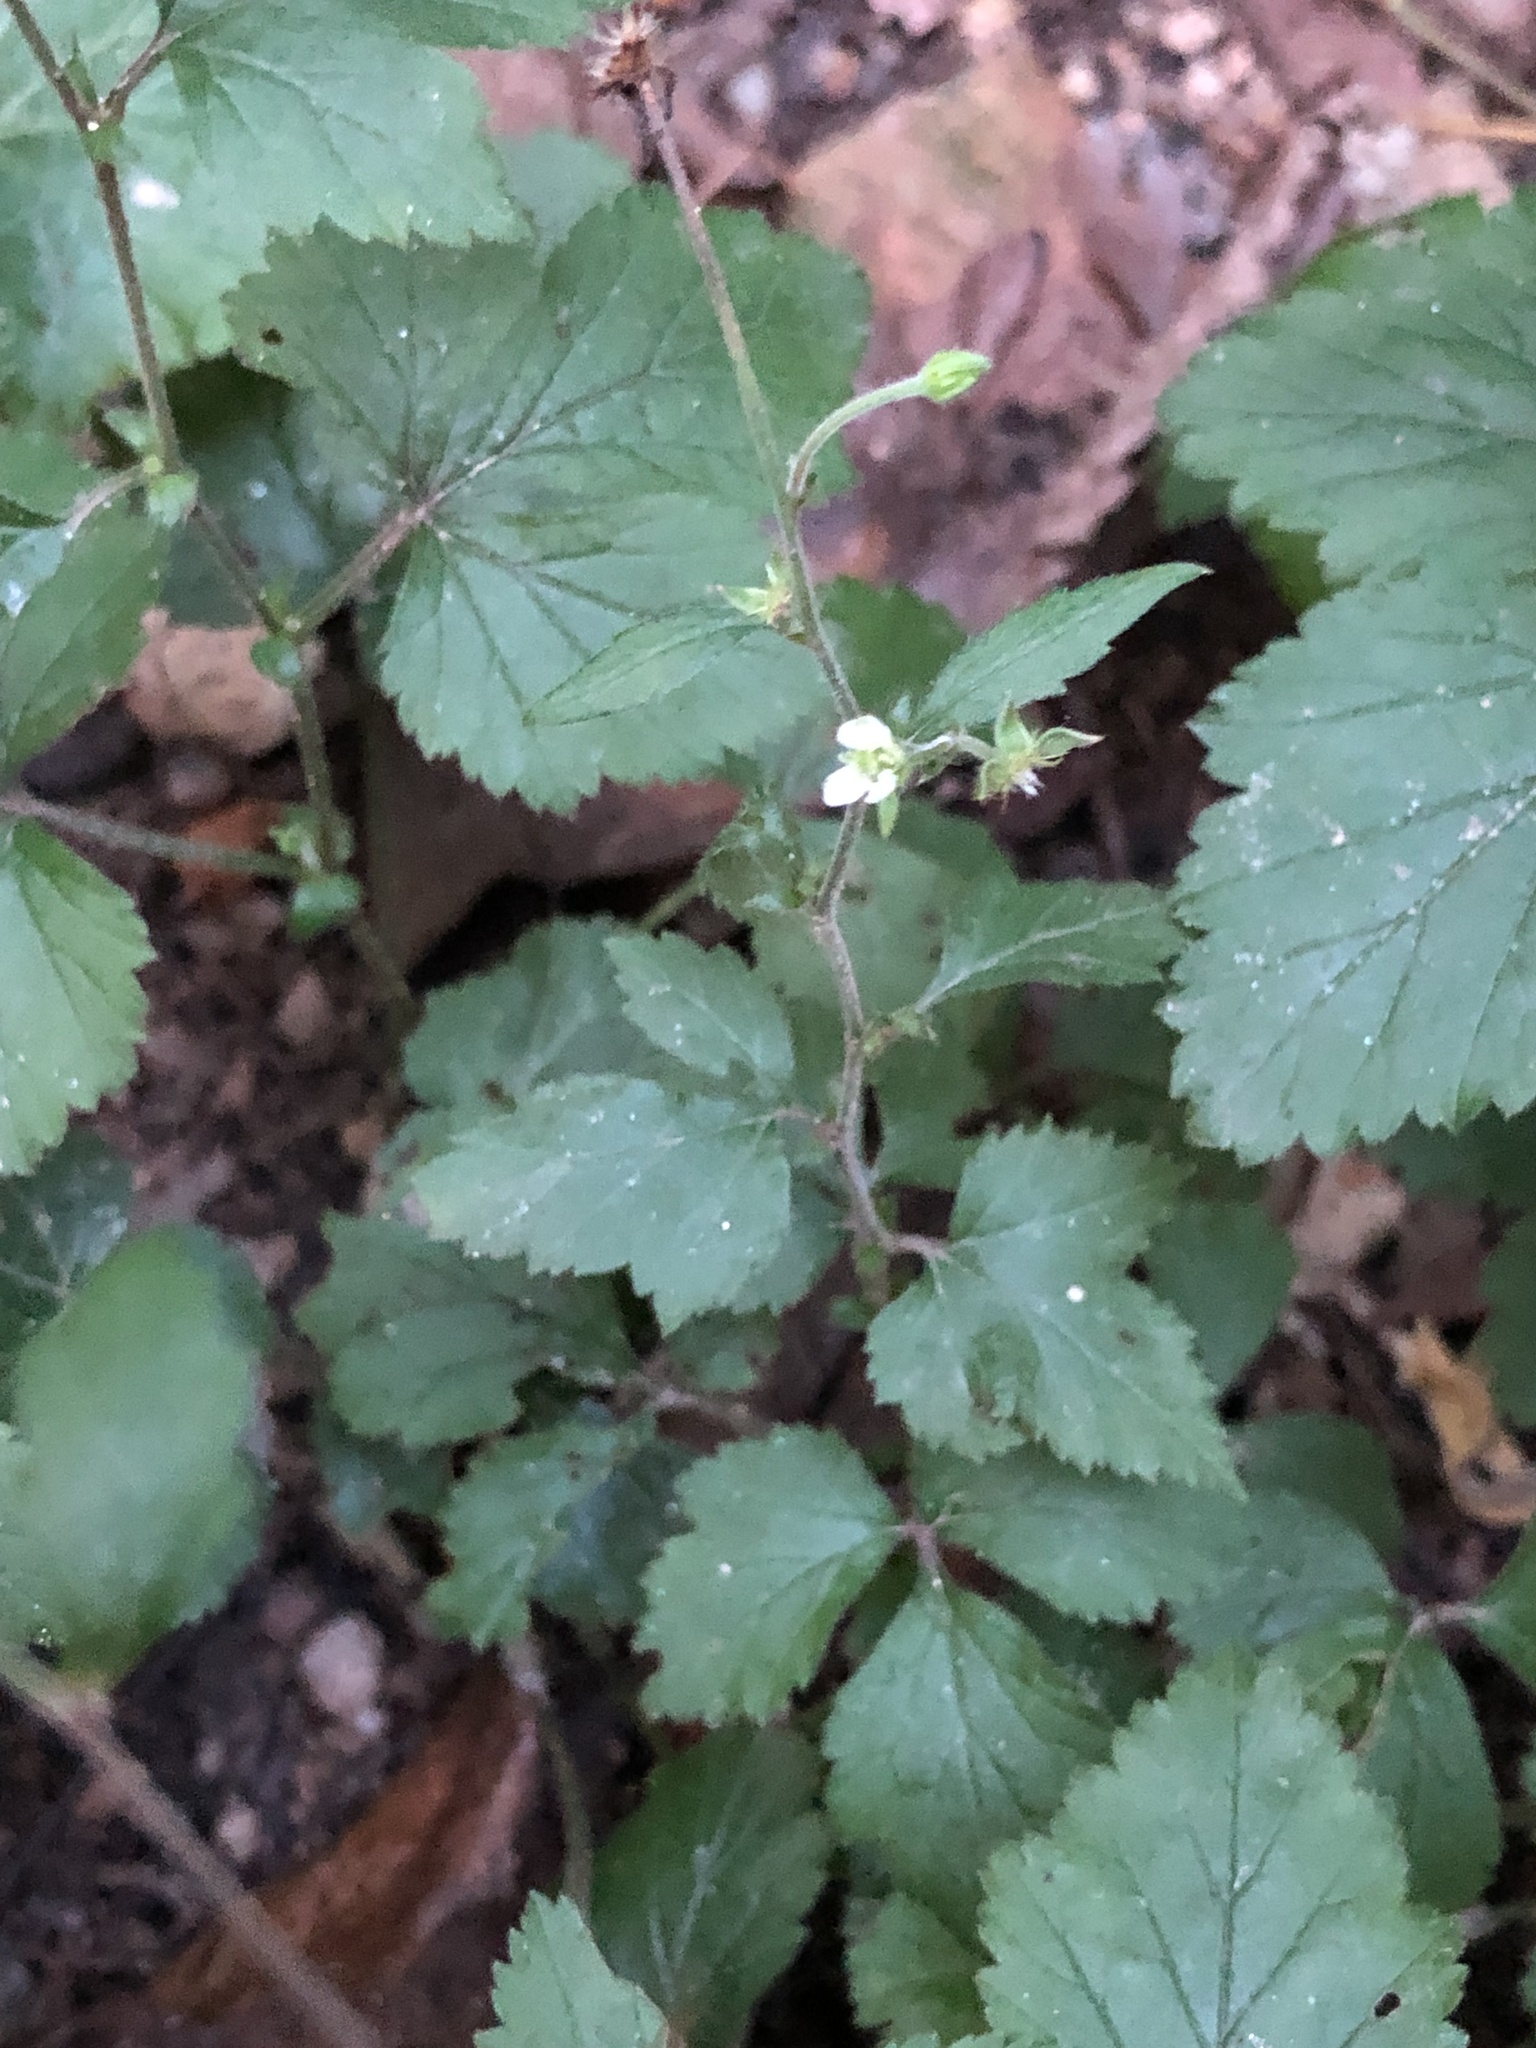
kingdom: Plantae
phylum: Tracheophyta
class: Magnoliopsida
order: Rosales
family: Rosaceae
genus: Geum
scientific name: Geum canadense
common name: White avens
